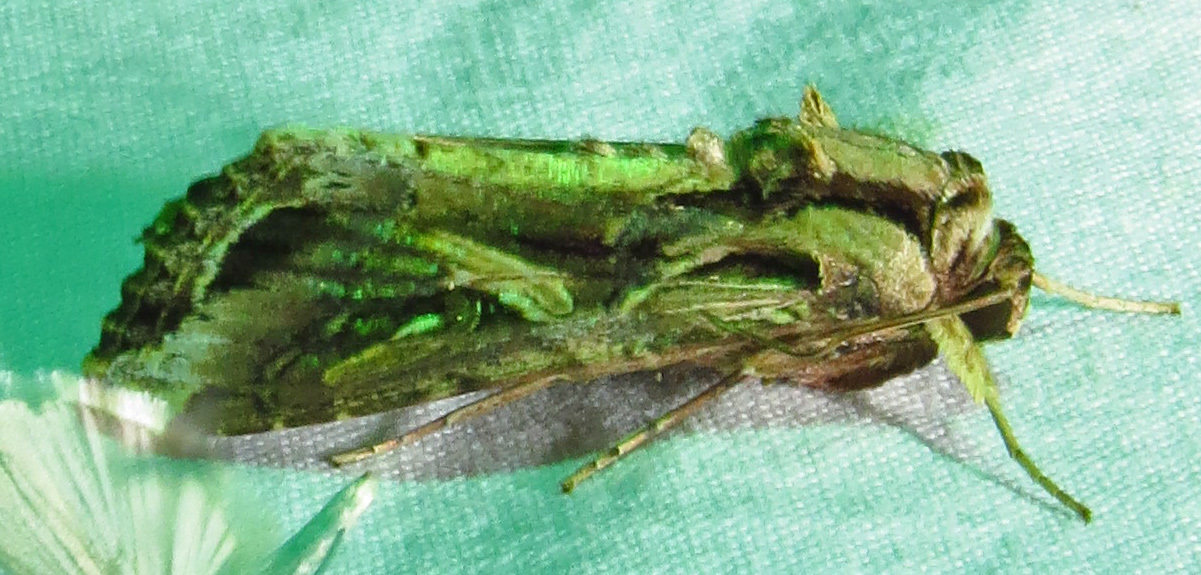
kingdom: Animalia
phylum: Arthropoda
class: Insecta
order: Lepidoptera
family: Noctuidae
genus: Spodoptera
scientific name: Spodoptera ornithogalli
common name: Yellow-striped armyworm
